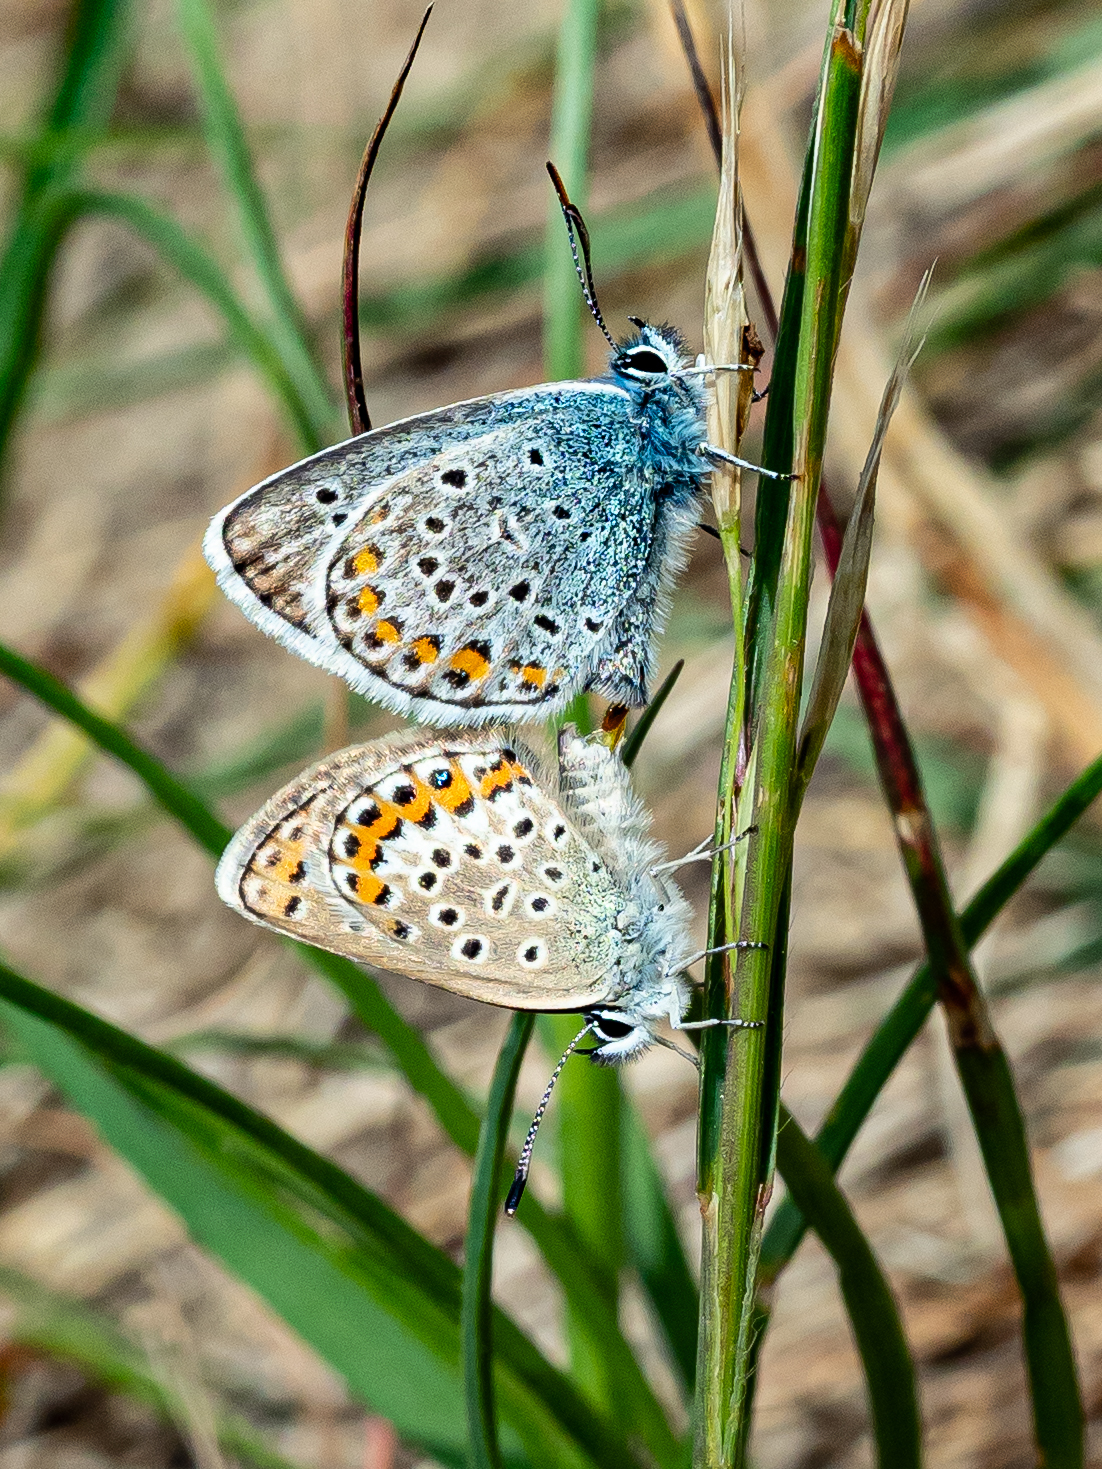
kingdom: Animalia
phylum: Arthropoda
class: Insecta
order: Lepidoptera
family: Lycaenidae
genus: Plebejus
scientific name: Plebejus argus
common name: Silver-studded blue
